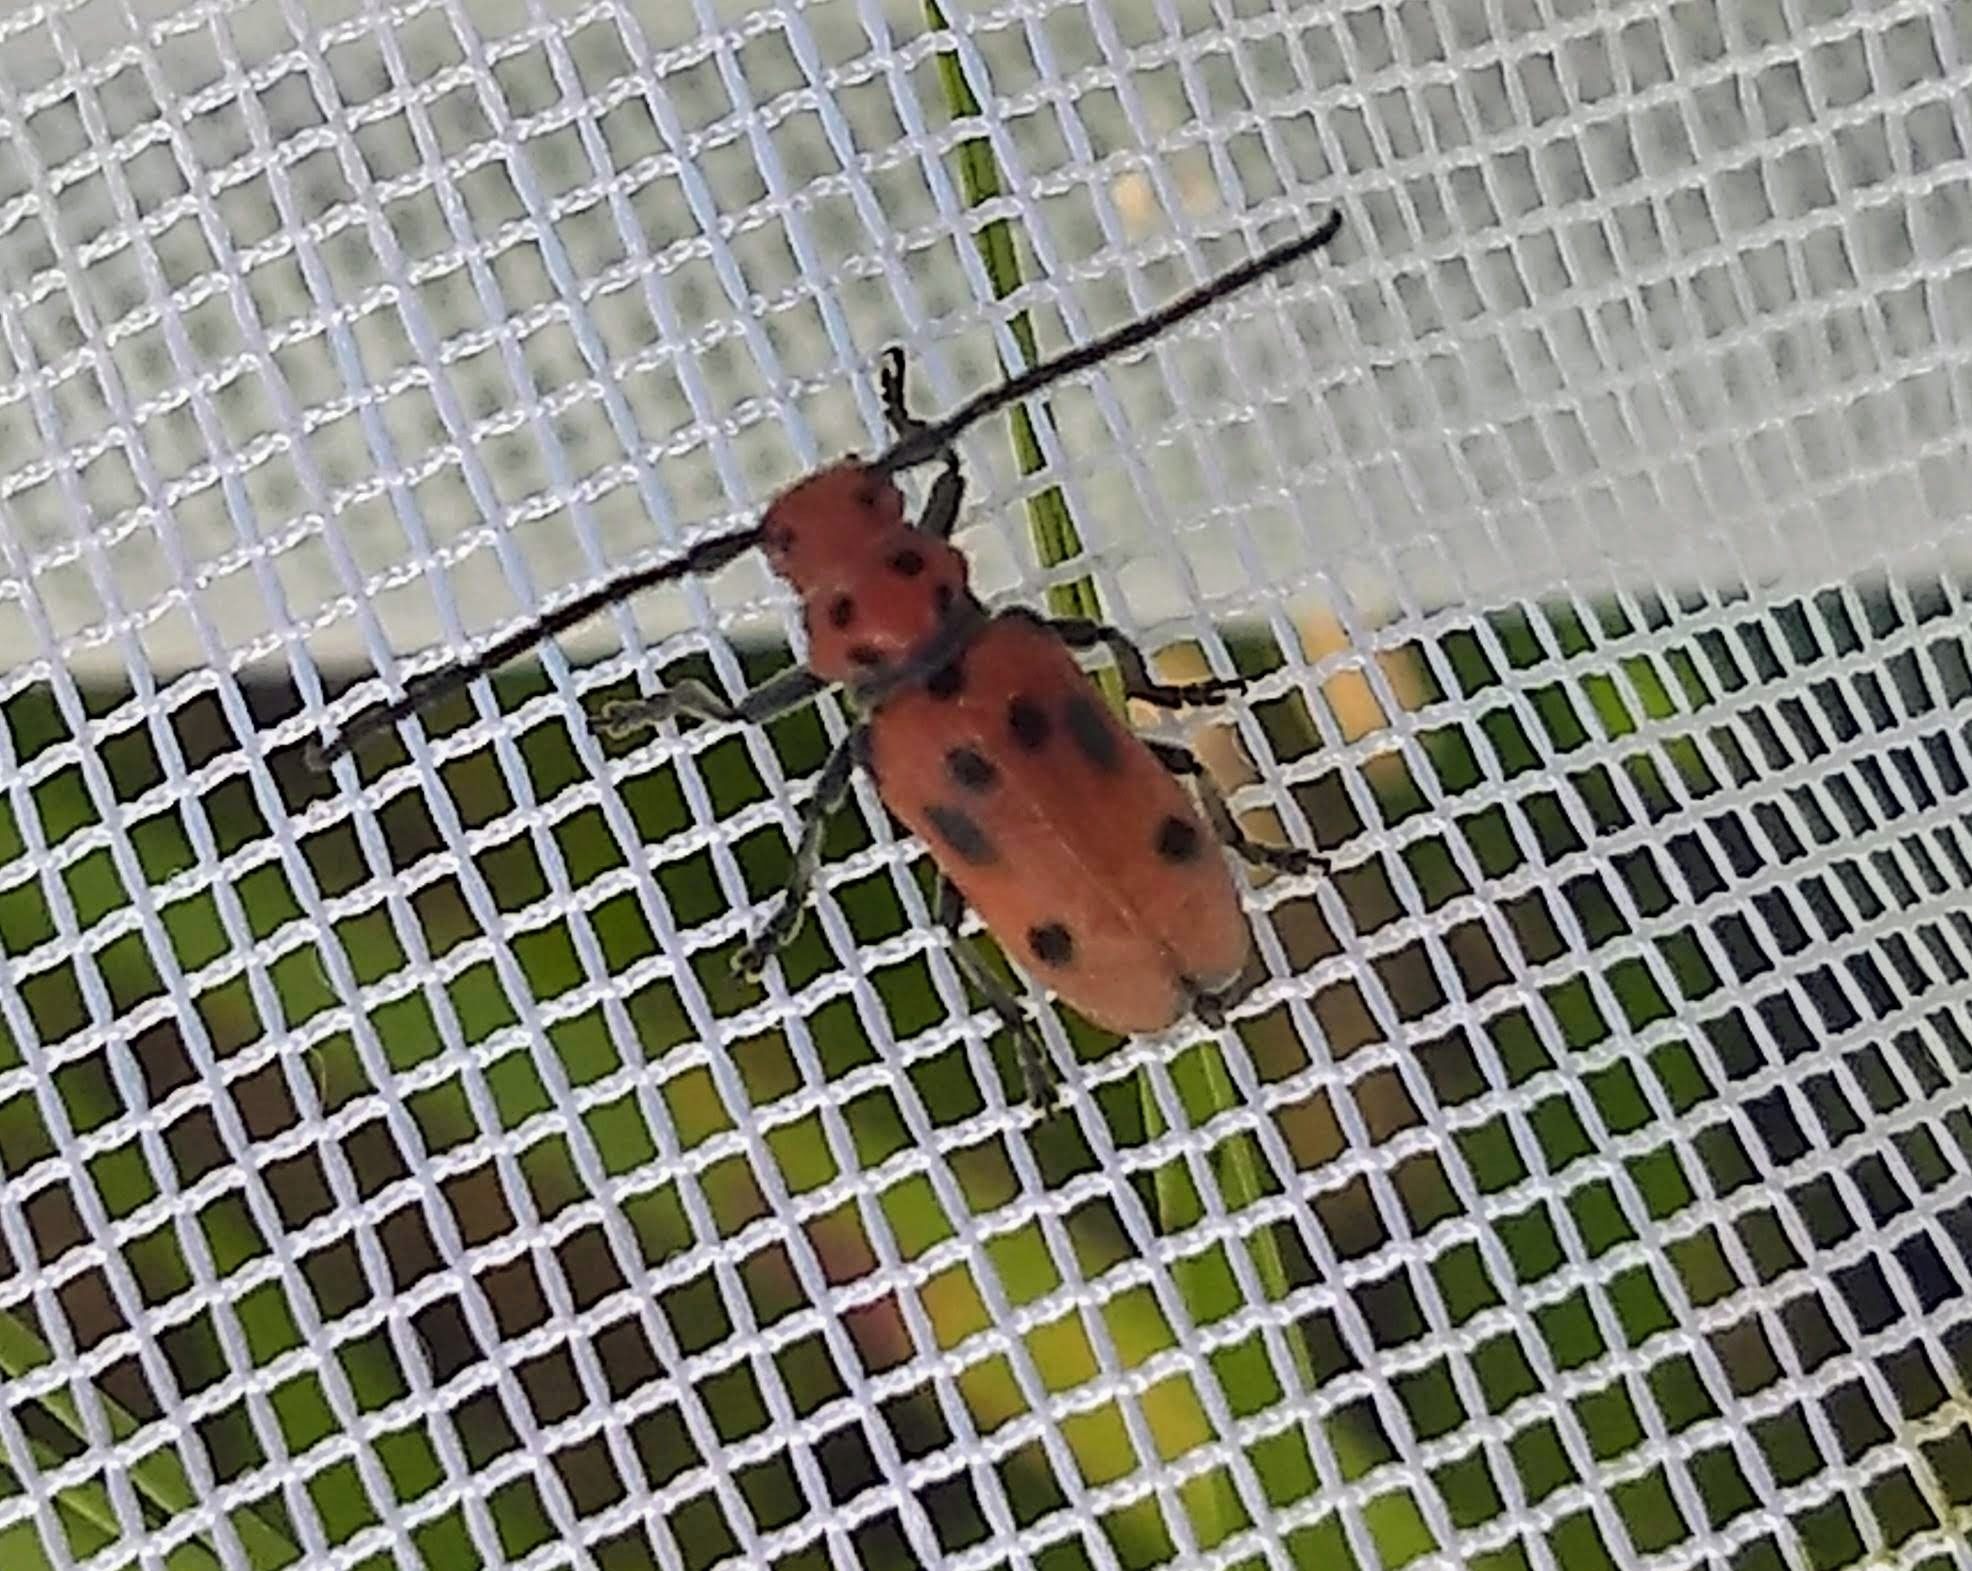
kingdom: Animalia
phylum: Arthropoda
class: Insecta
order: Coleoptera
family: Cerambycidae
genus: Tetraopes
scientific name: Tetraopes tetrophthalmus
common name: Red milkweed beetle
